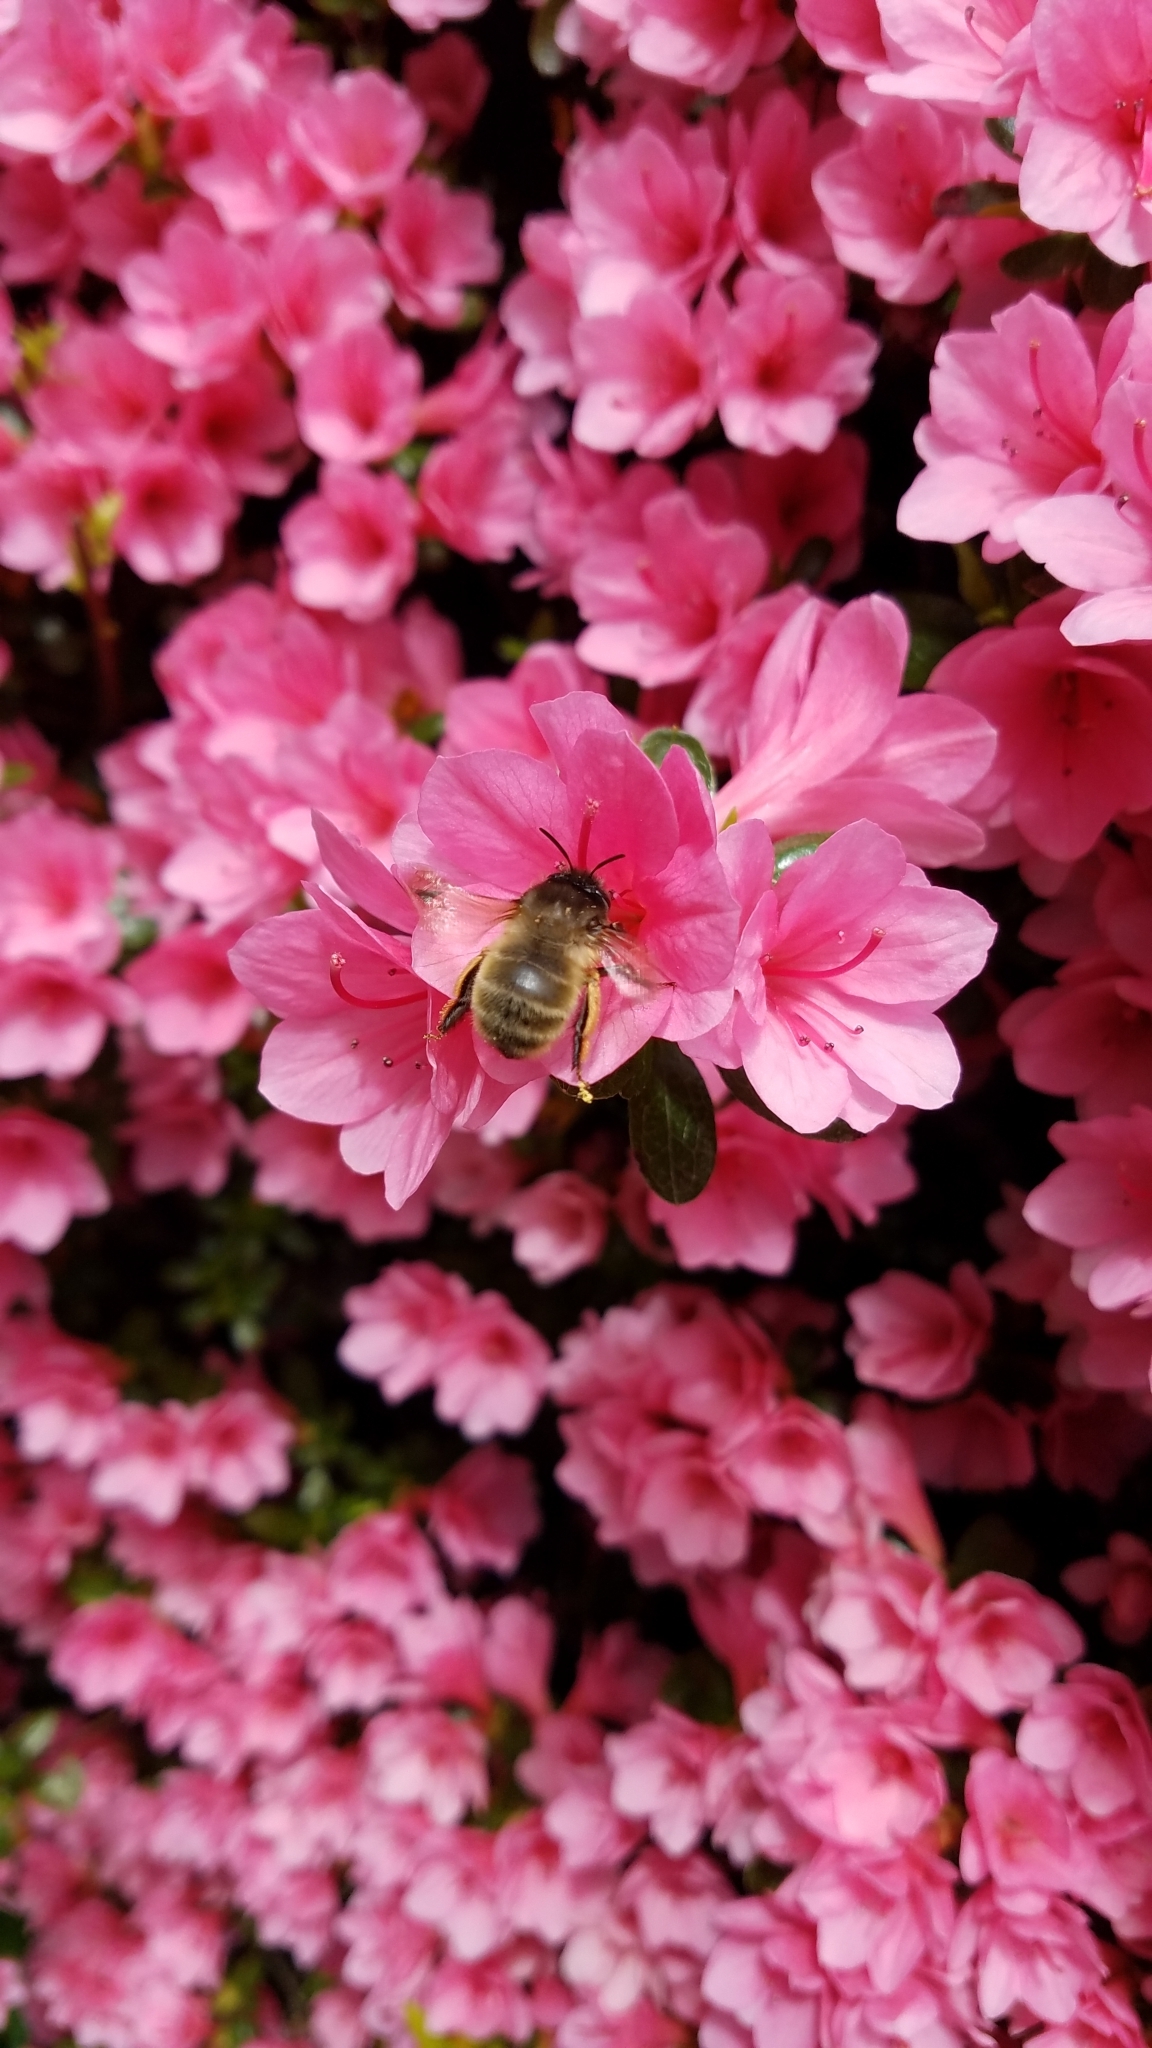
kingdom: Animalia
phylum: Arthropoda
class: Insecta
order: Hymenoptera
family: Apidae
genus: Anthophora
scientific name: Anthophora villosula
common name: Asian shaggy digger
